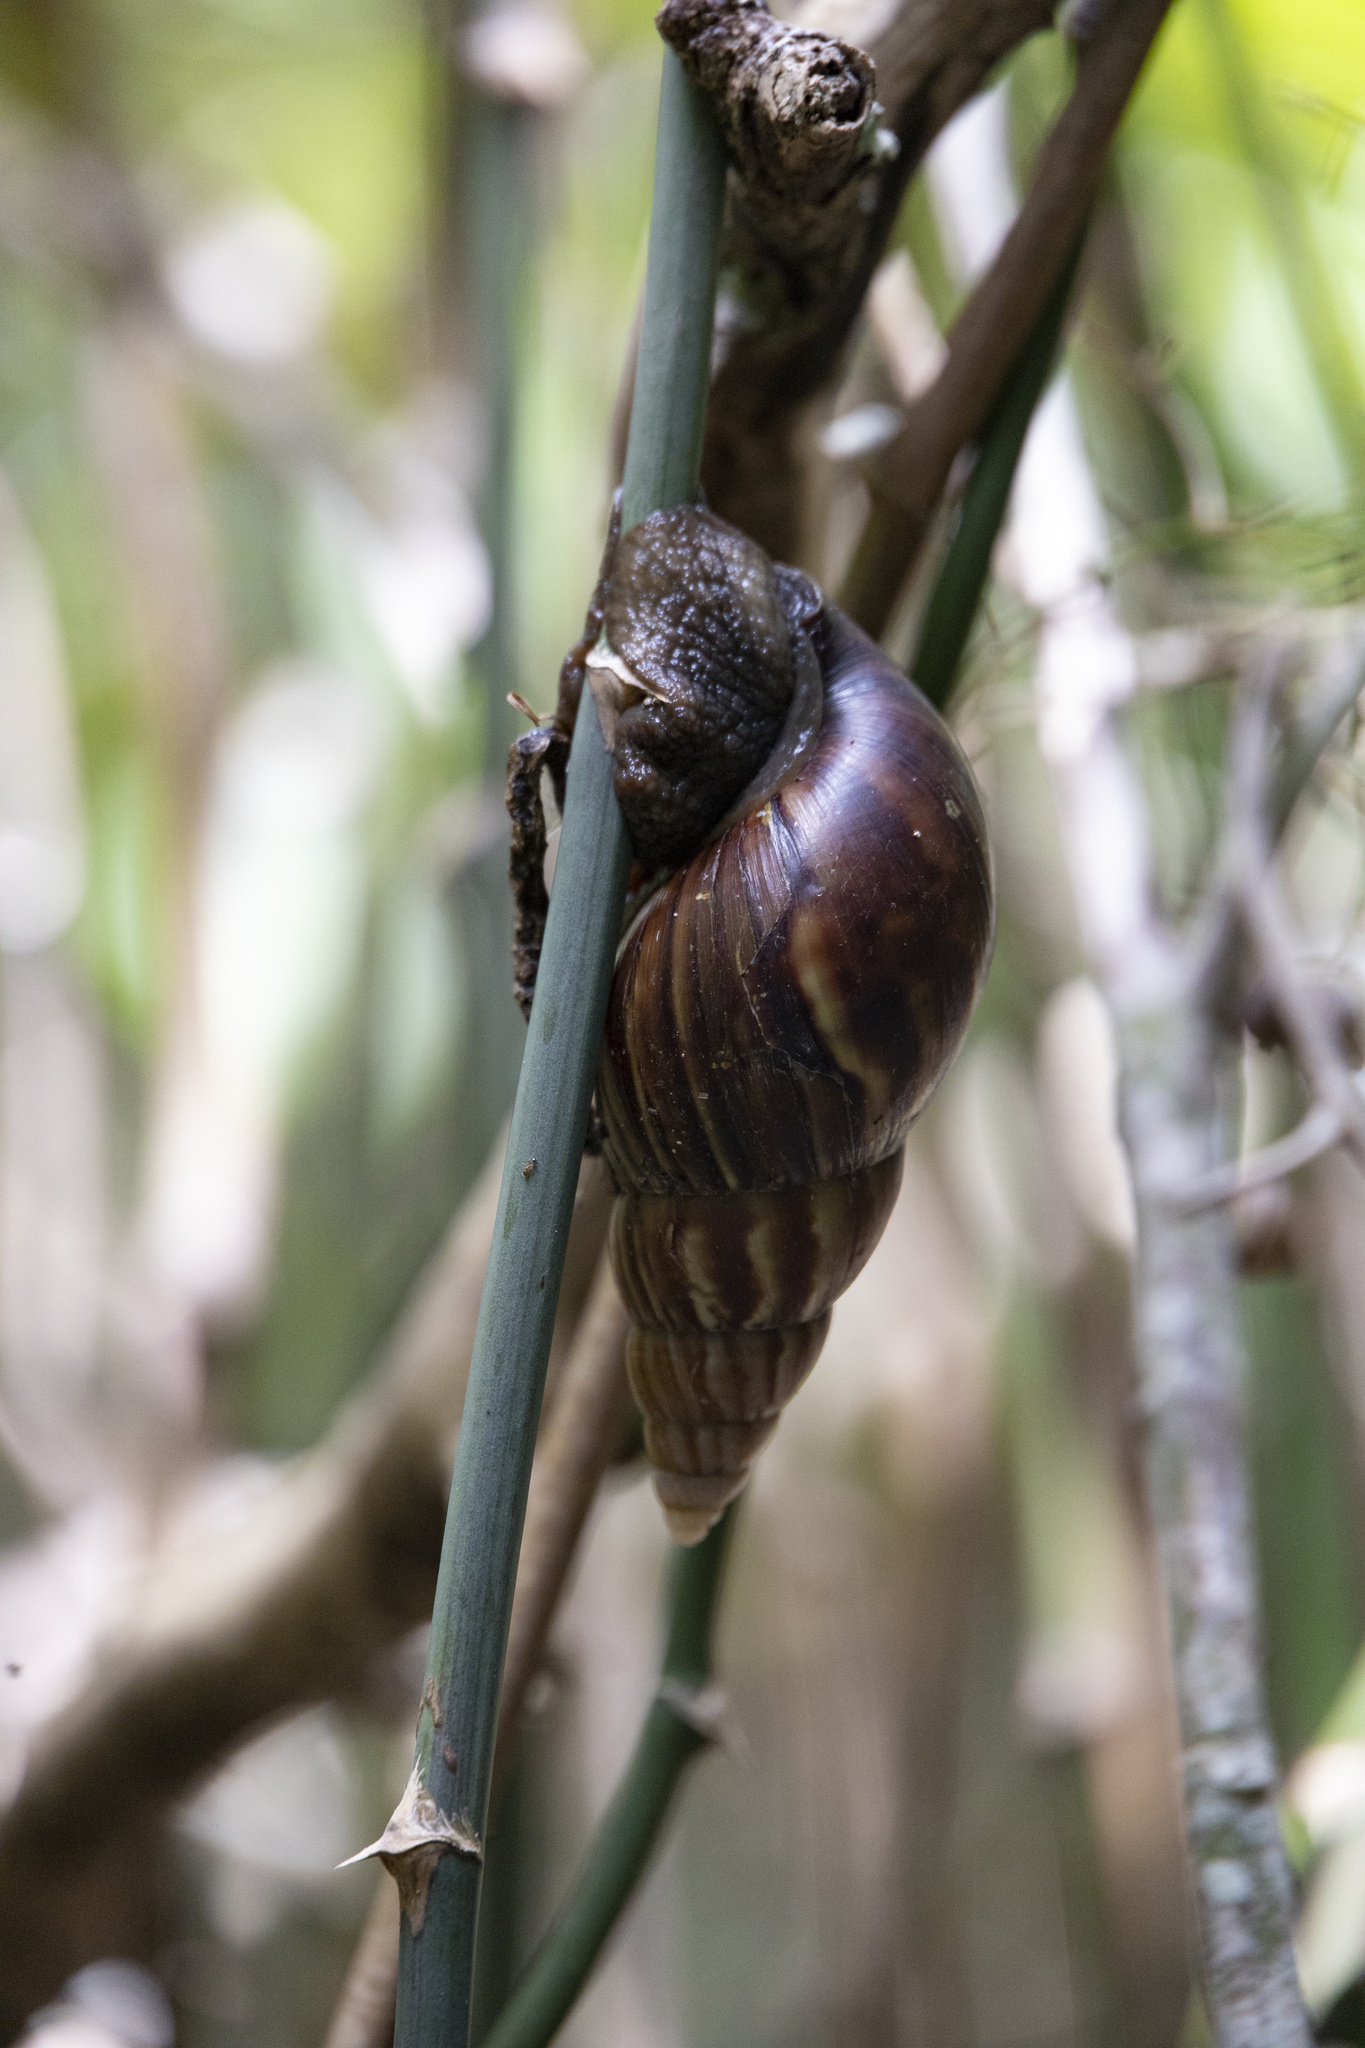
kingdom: Animalia
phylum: Mollusca
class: Gastropoda
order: Stylommatophora
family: Achatinidae
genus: Lissachatina
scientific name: Lissachatina fulica
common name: Giant african snail
